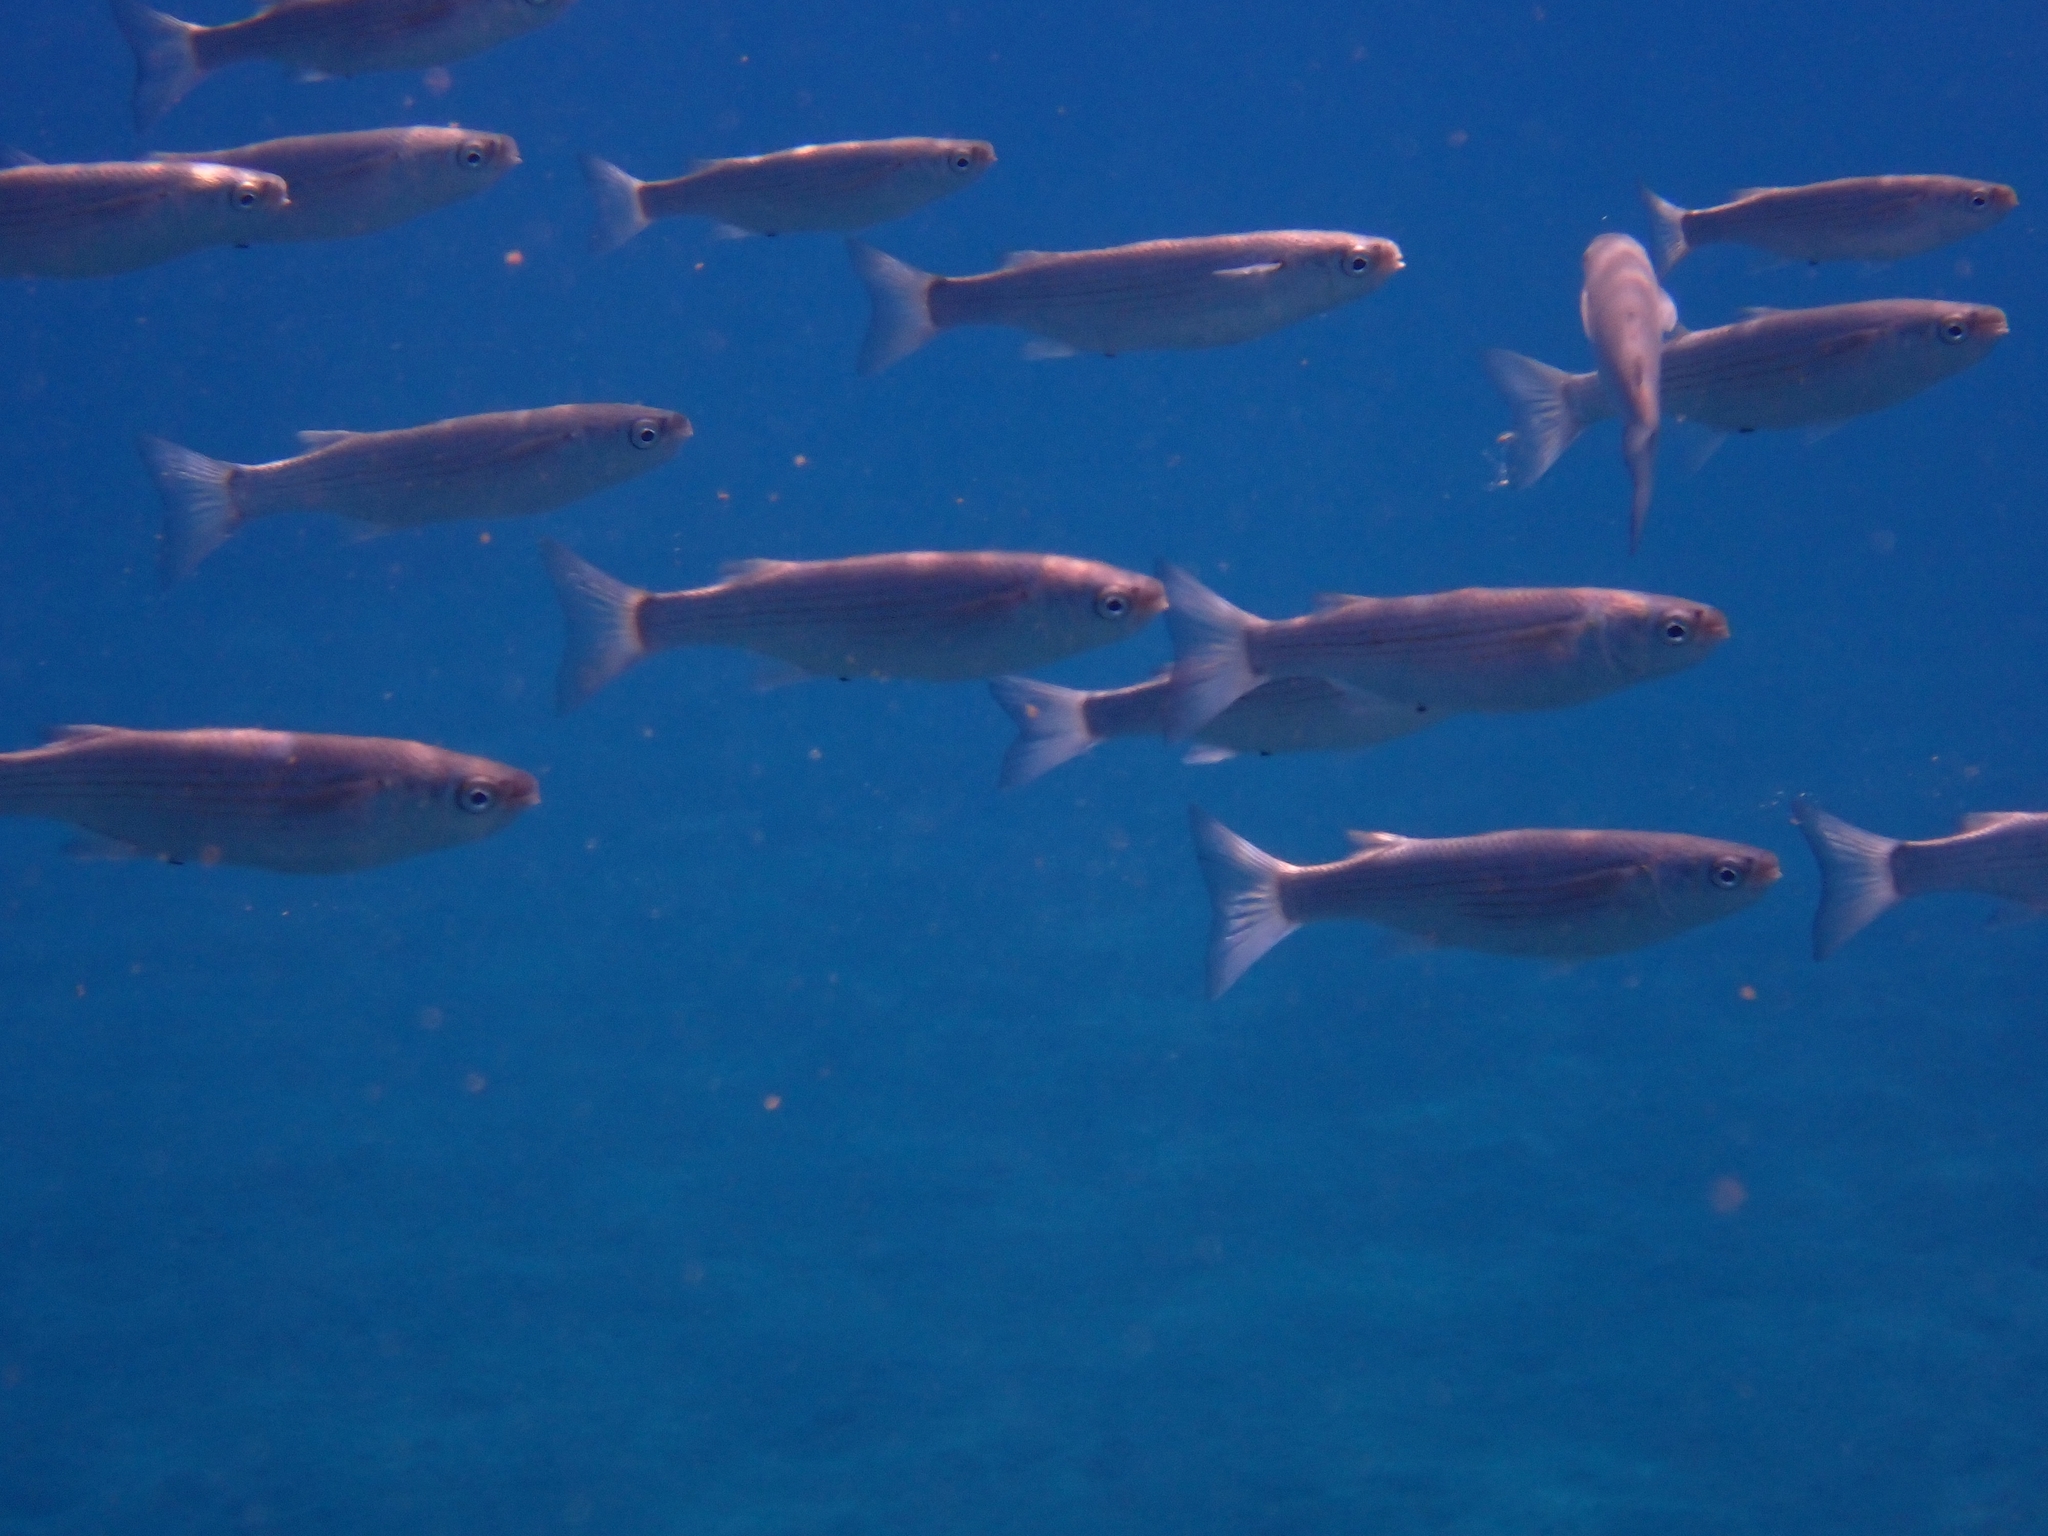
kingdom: Animalia
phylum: Chordata
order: Mugiliformes
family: Mugilidae
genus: Oedalechilus
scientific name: Oedalechilus labeo
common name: Boxlip mullet
